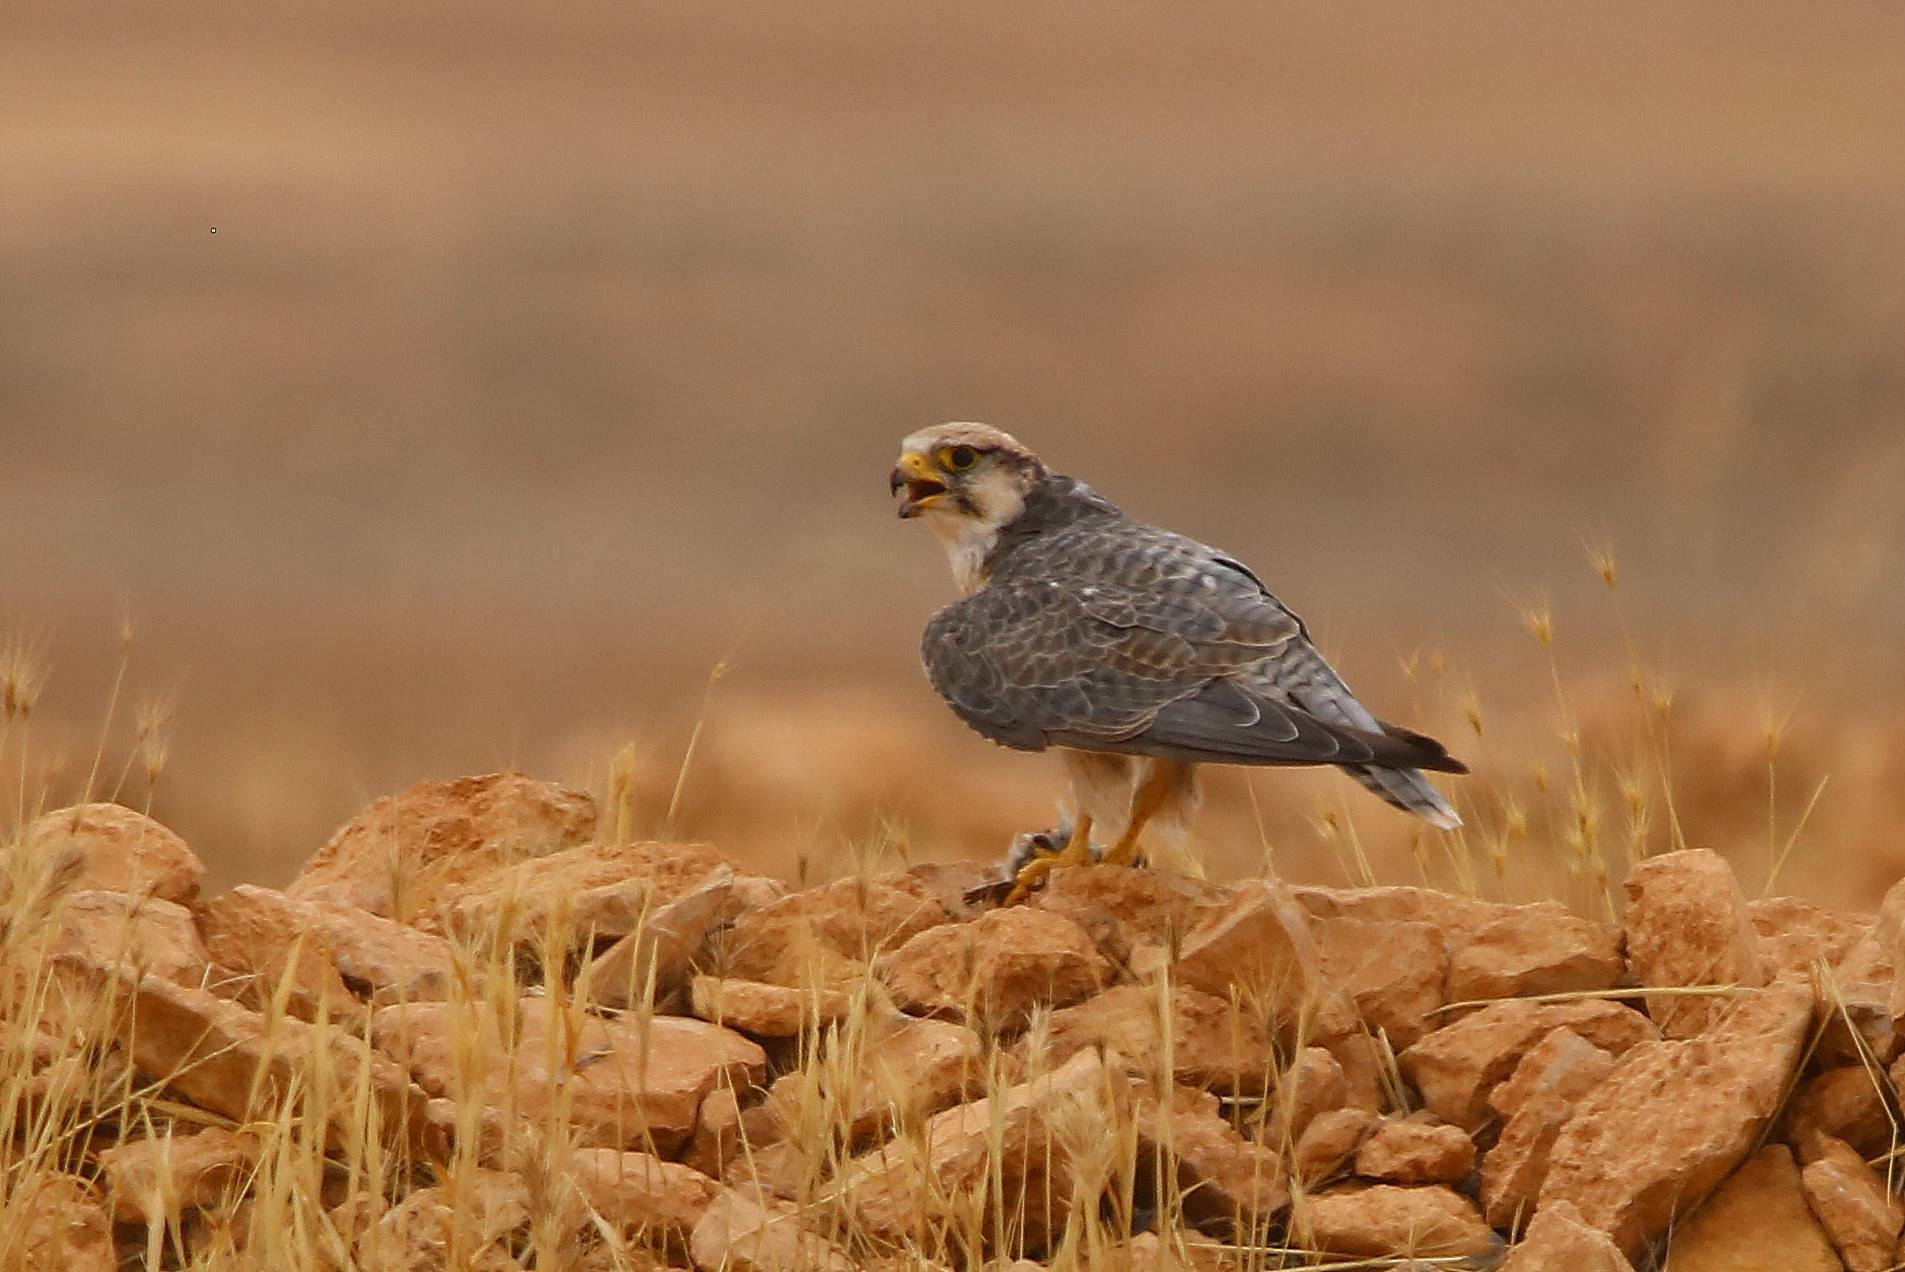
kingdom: Animalia
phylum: Chordata
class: Aves
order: Falconiformes
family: Falconidae
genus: Falco
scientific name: Falco biarmicus
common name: Lanner falcon
